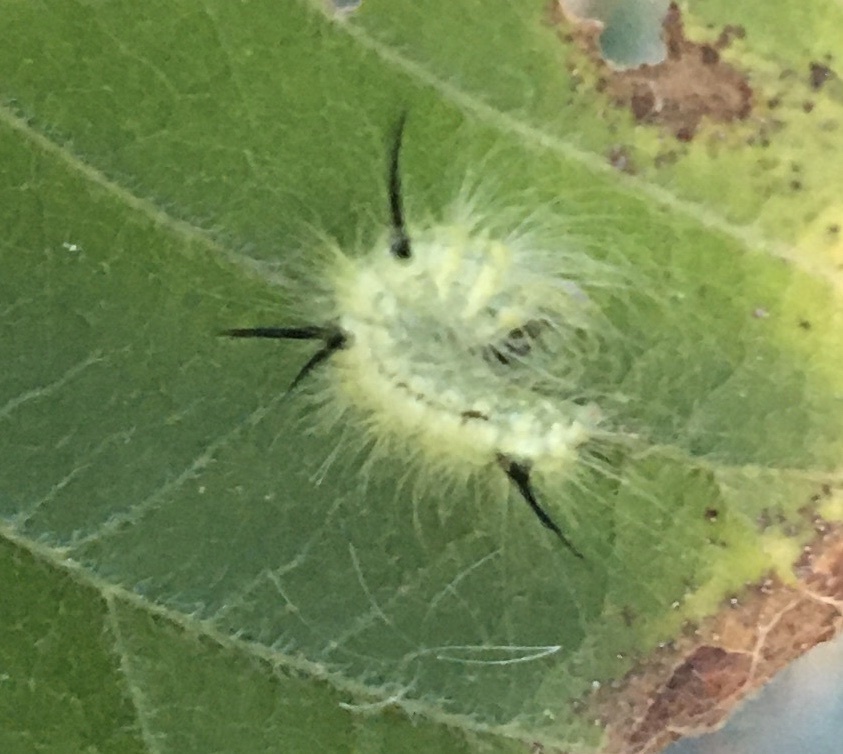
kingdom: Animalia
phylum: Arthropoda
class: Insecta
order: Lepidoptera
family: Noctuidae
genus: Acronicta
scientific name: Acronicta americana
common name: American dagger
